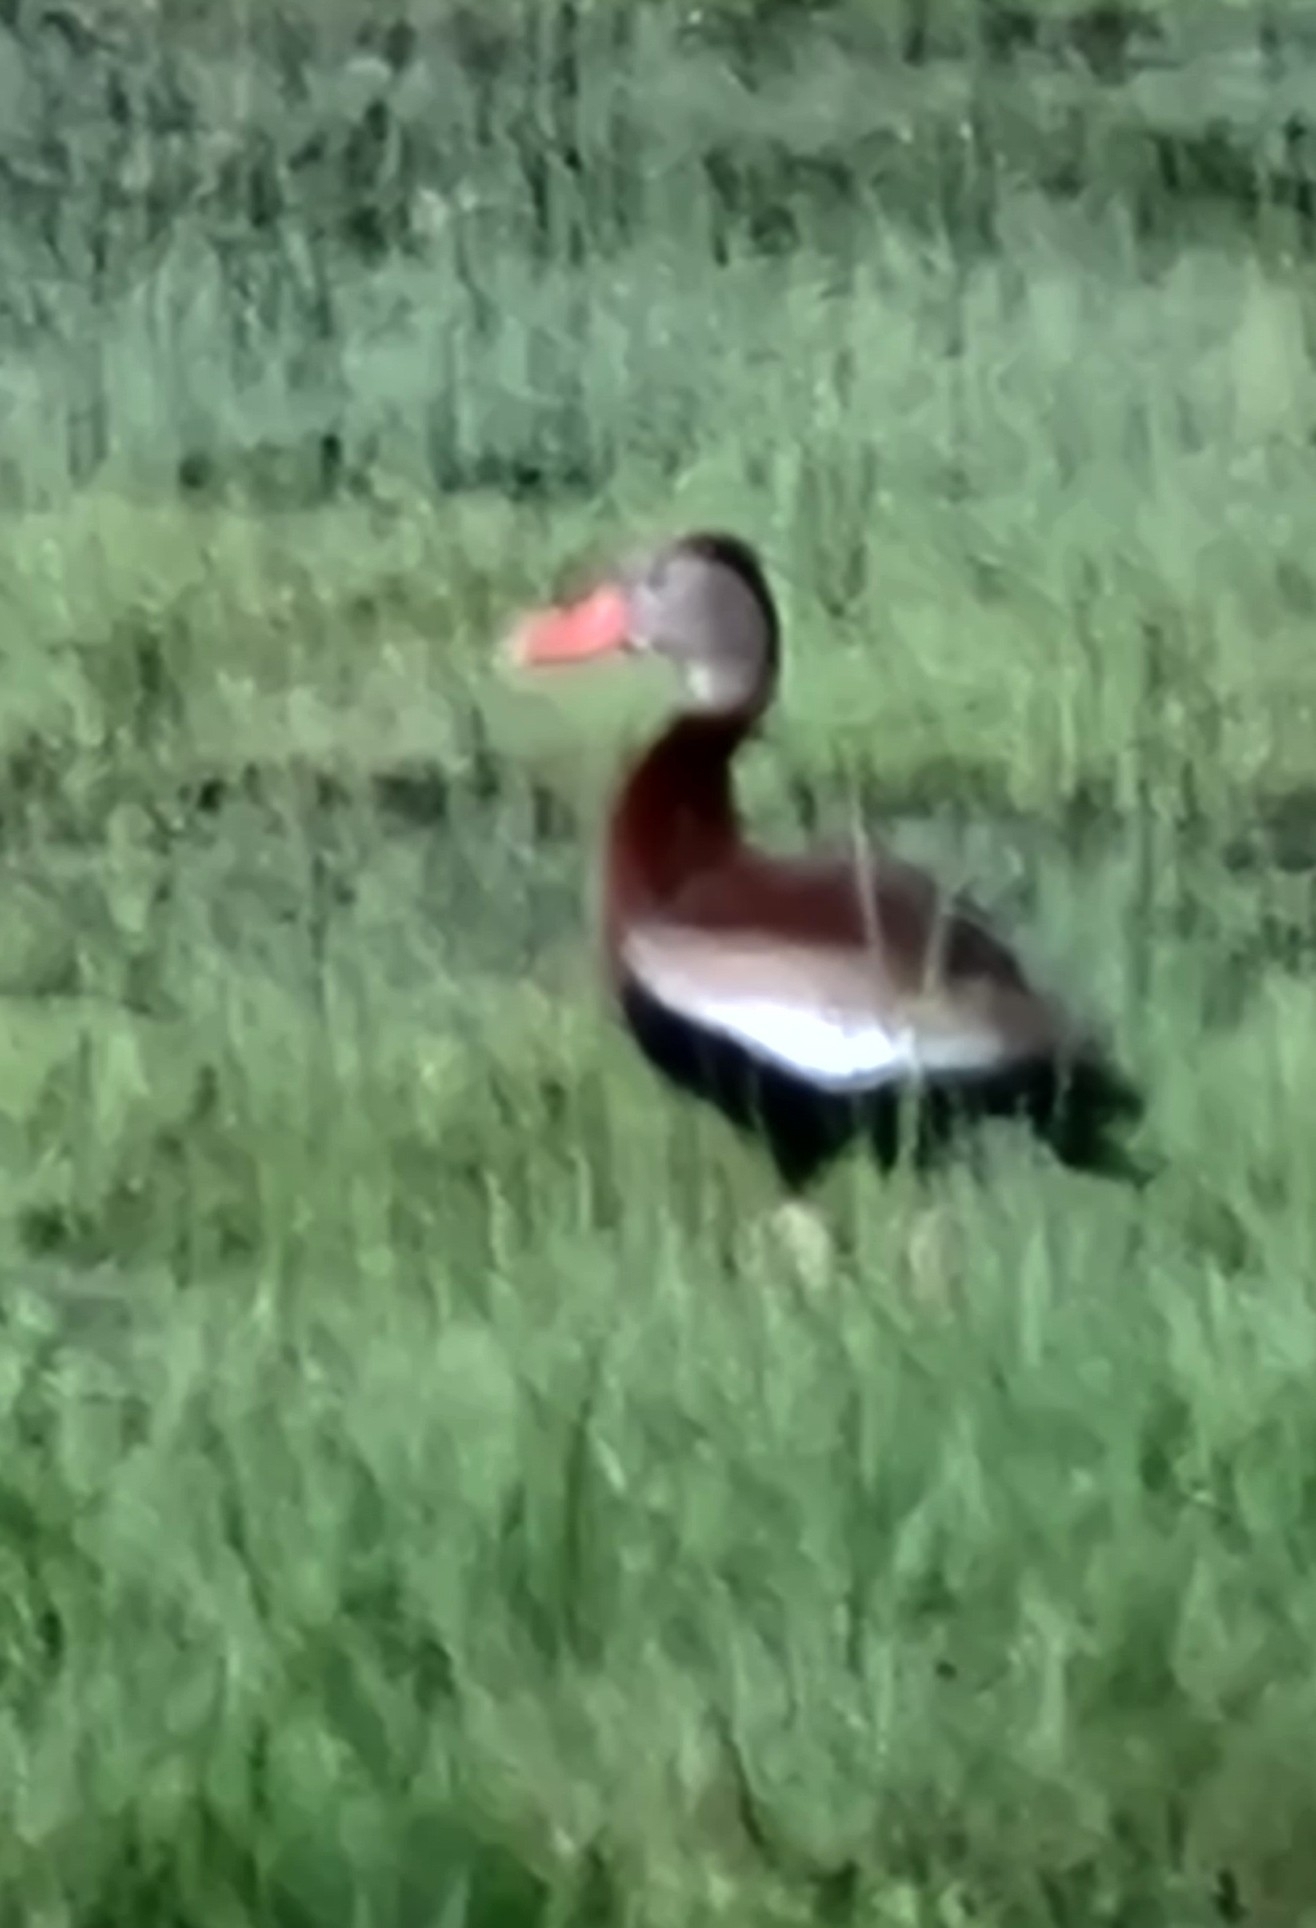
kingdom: Animalia
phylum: Chordata
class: Aves
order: Anseriformes
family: Anatidae
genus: Dendrocygna
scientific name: Dendrocygna autumnalis
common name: Black-bellied whistling duck
